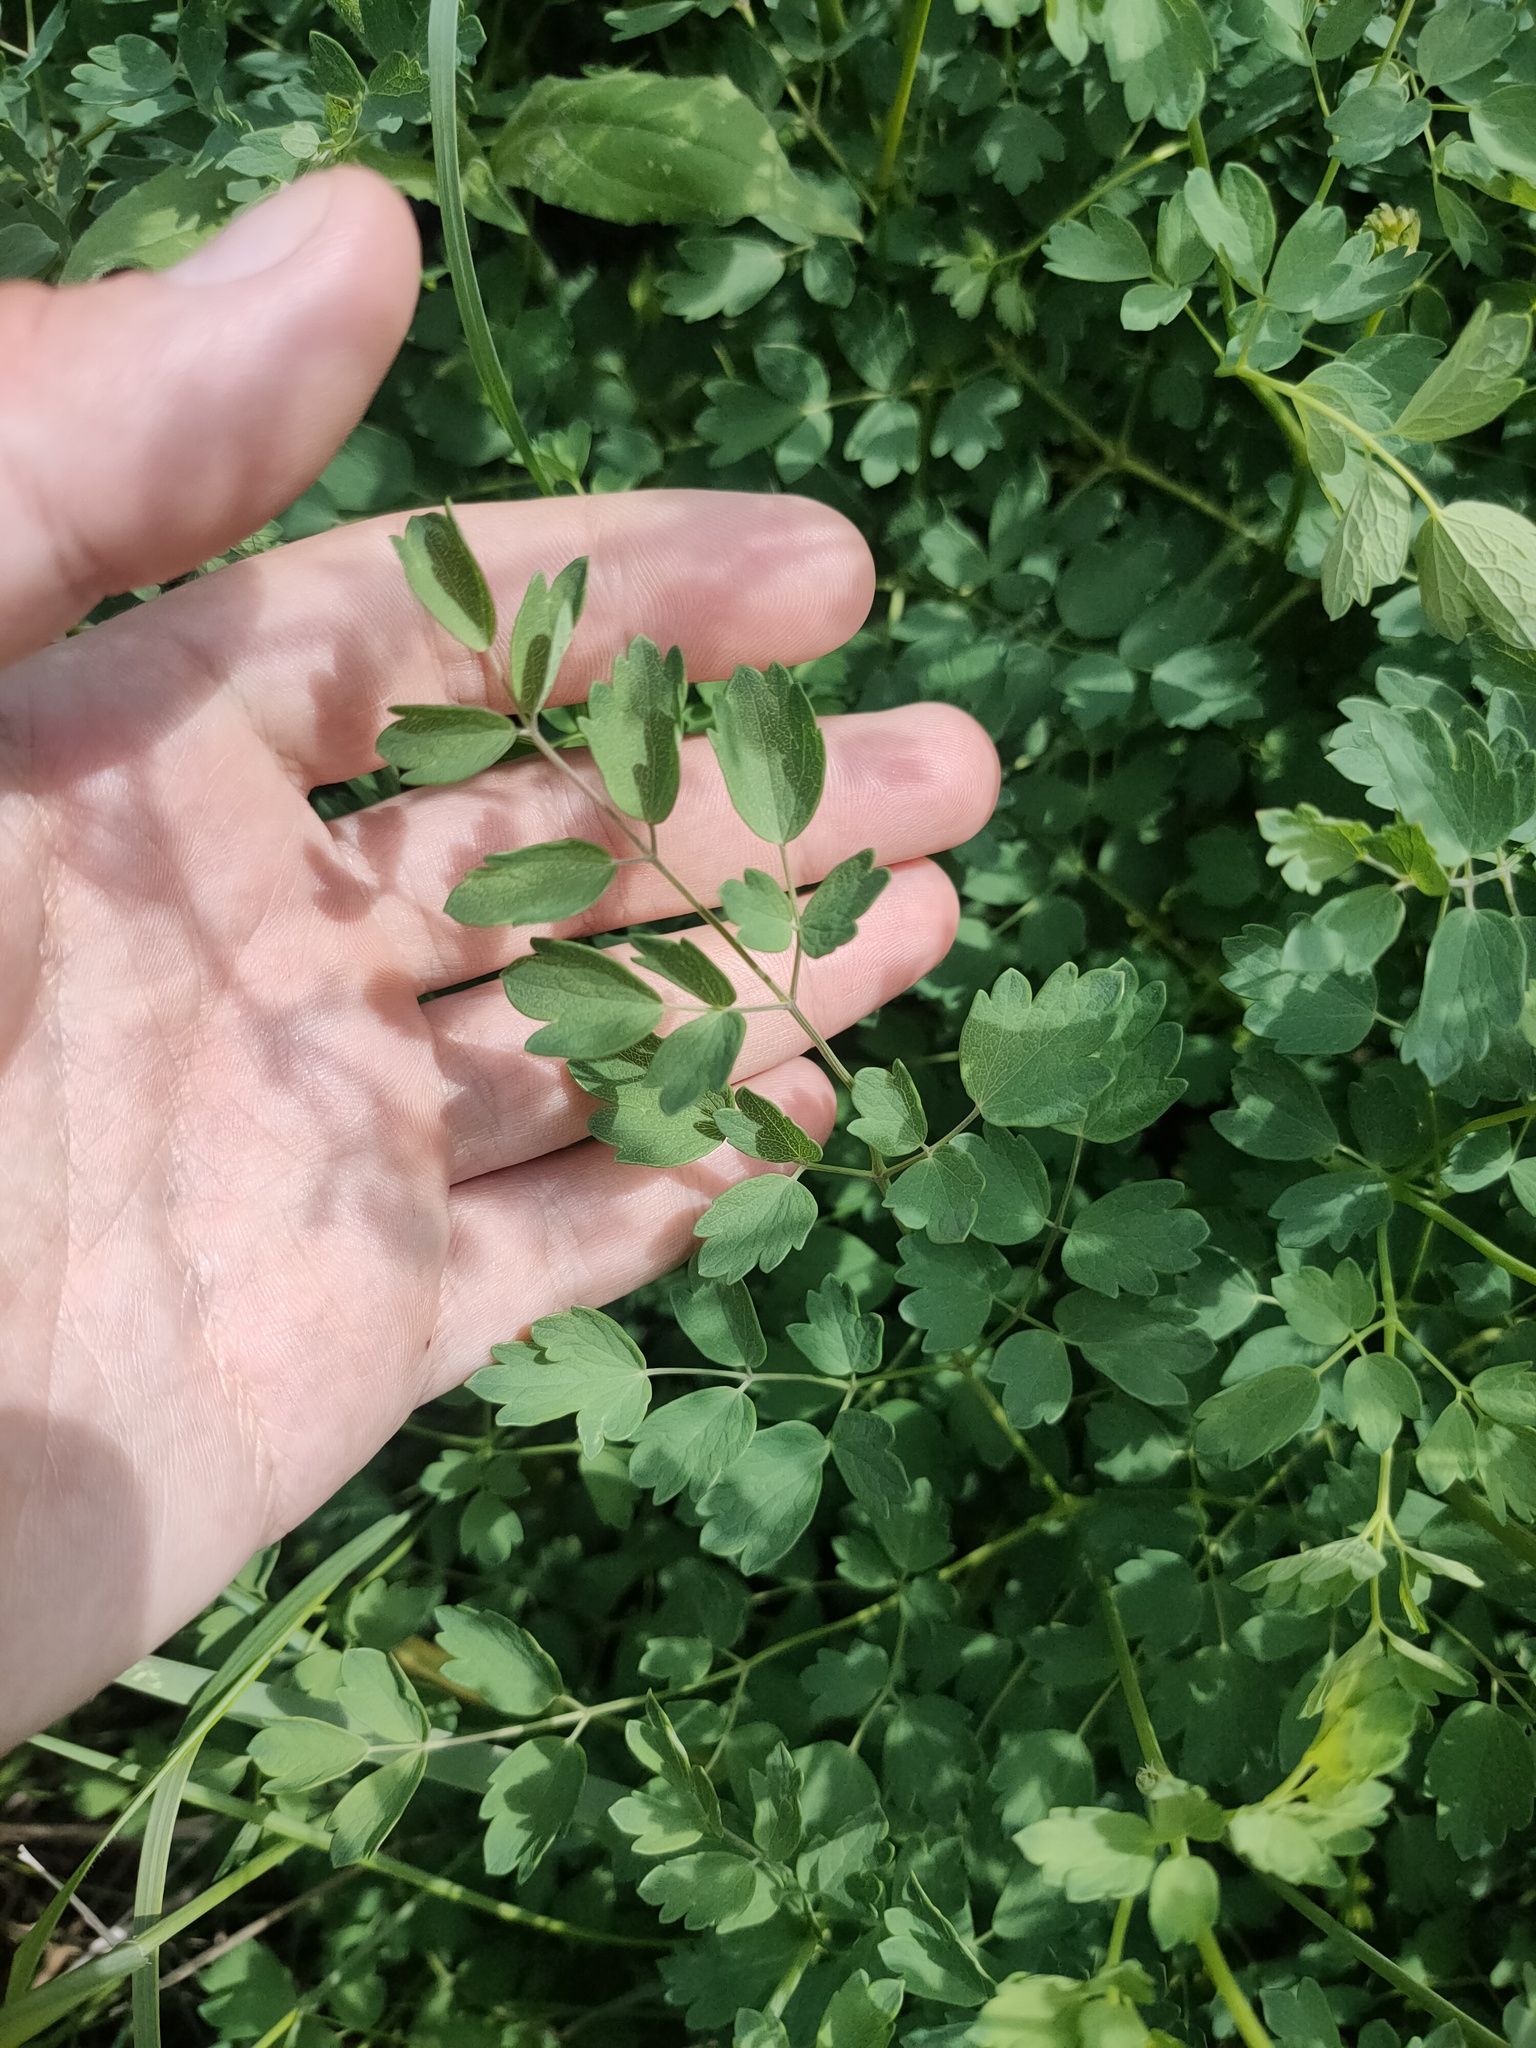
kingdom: Plantae
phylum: Tracheophyta
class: Magnoliopsida
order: Ranunculales
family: Ranunculaceae
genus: Thalictrum
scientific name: Thalictrum minus
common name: Lesser meadow-rue
